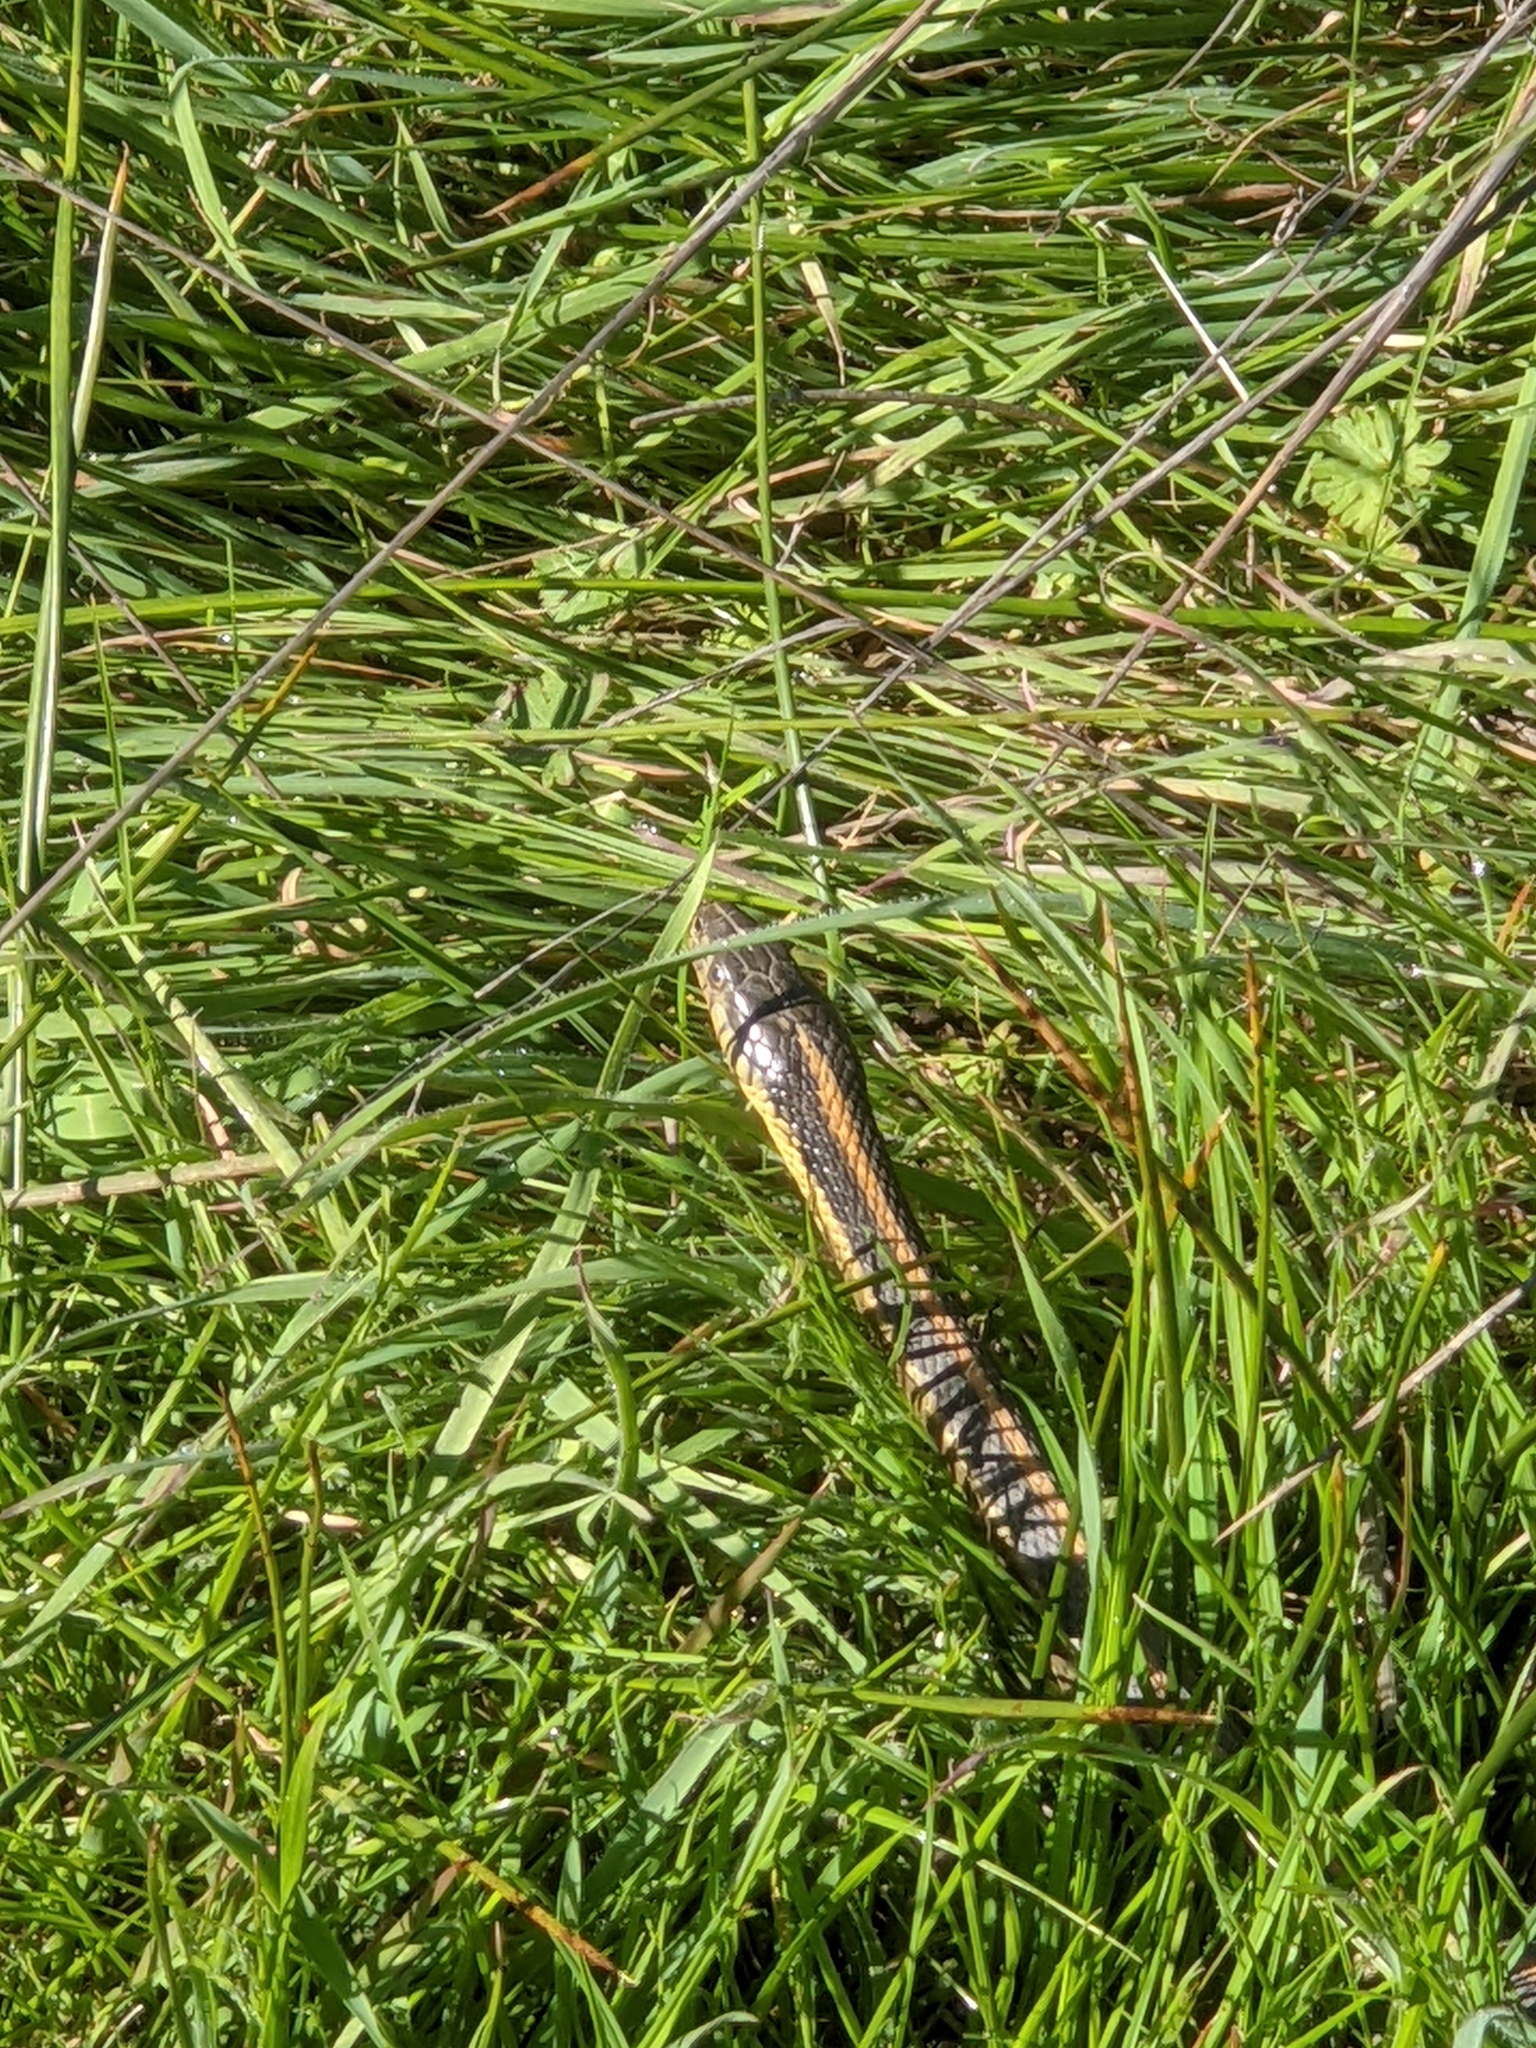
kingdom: Animalia
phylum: Chordata
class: Squamata
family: Colubridae
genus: Thamnophis
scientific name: Thamnophis atratus
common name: Pacific coast aquatic garter snake
